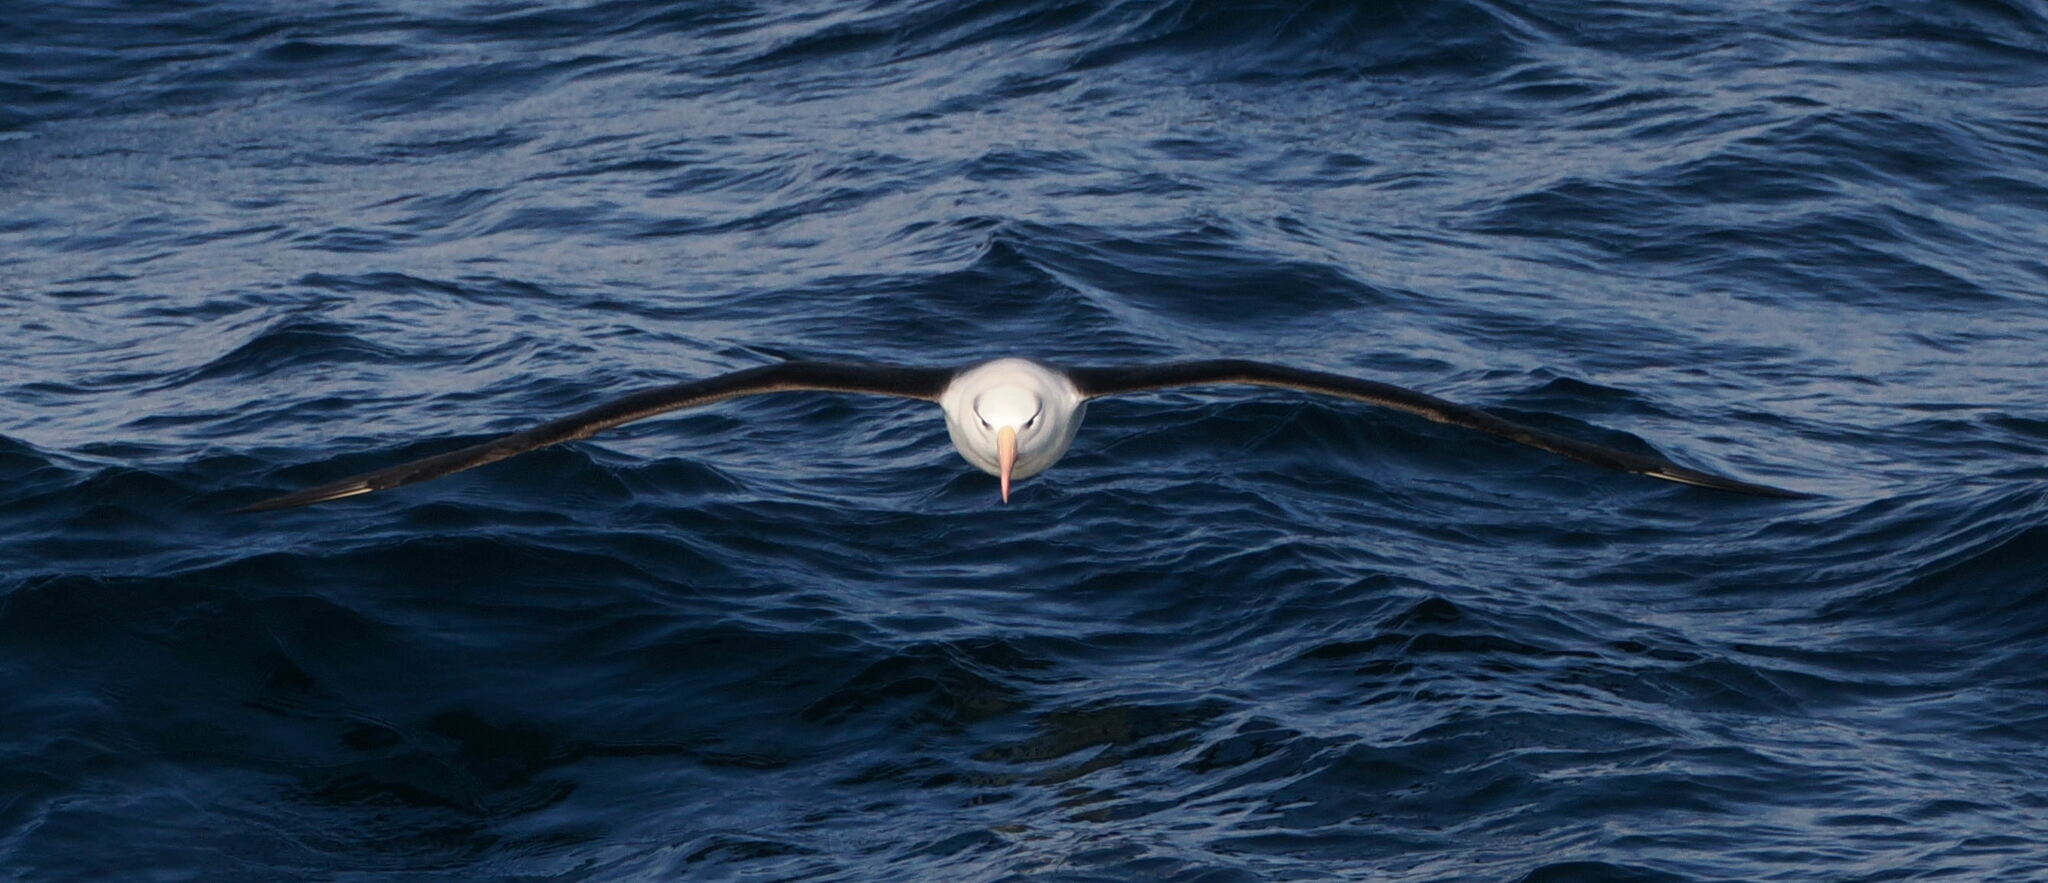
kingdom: Animalia
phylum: Chordata
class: Aves
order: Procellariiformes
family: Diomedeidae
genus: Thalassarche
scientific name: Thalassarche melanophris
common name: Black-browed albatross
